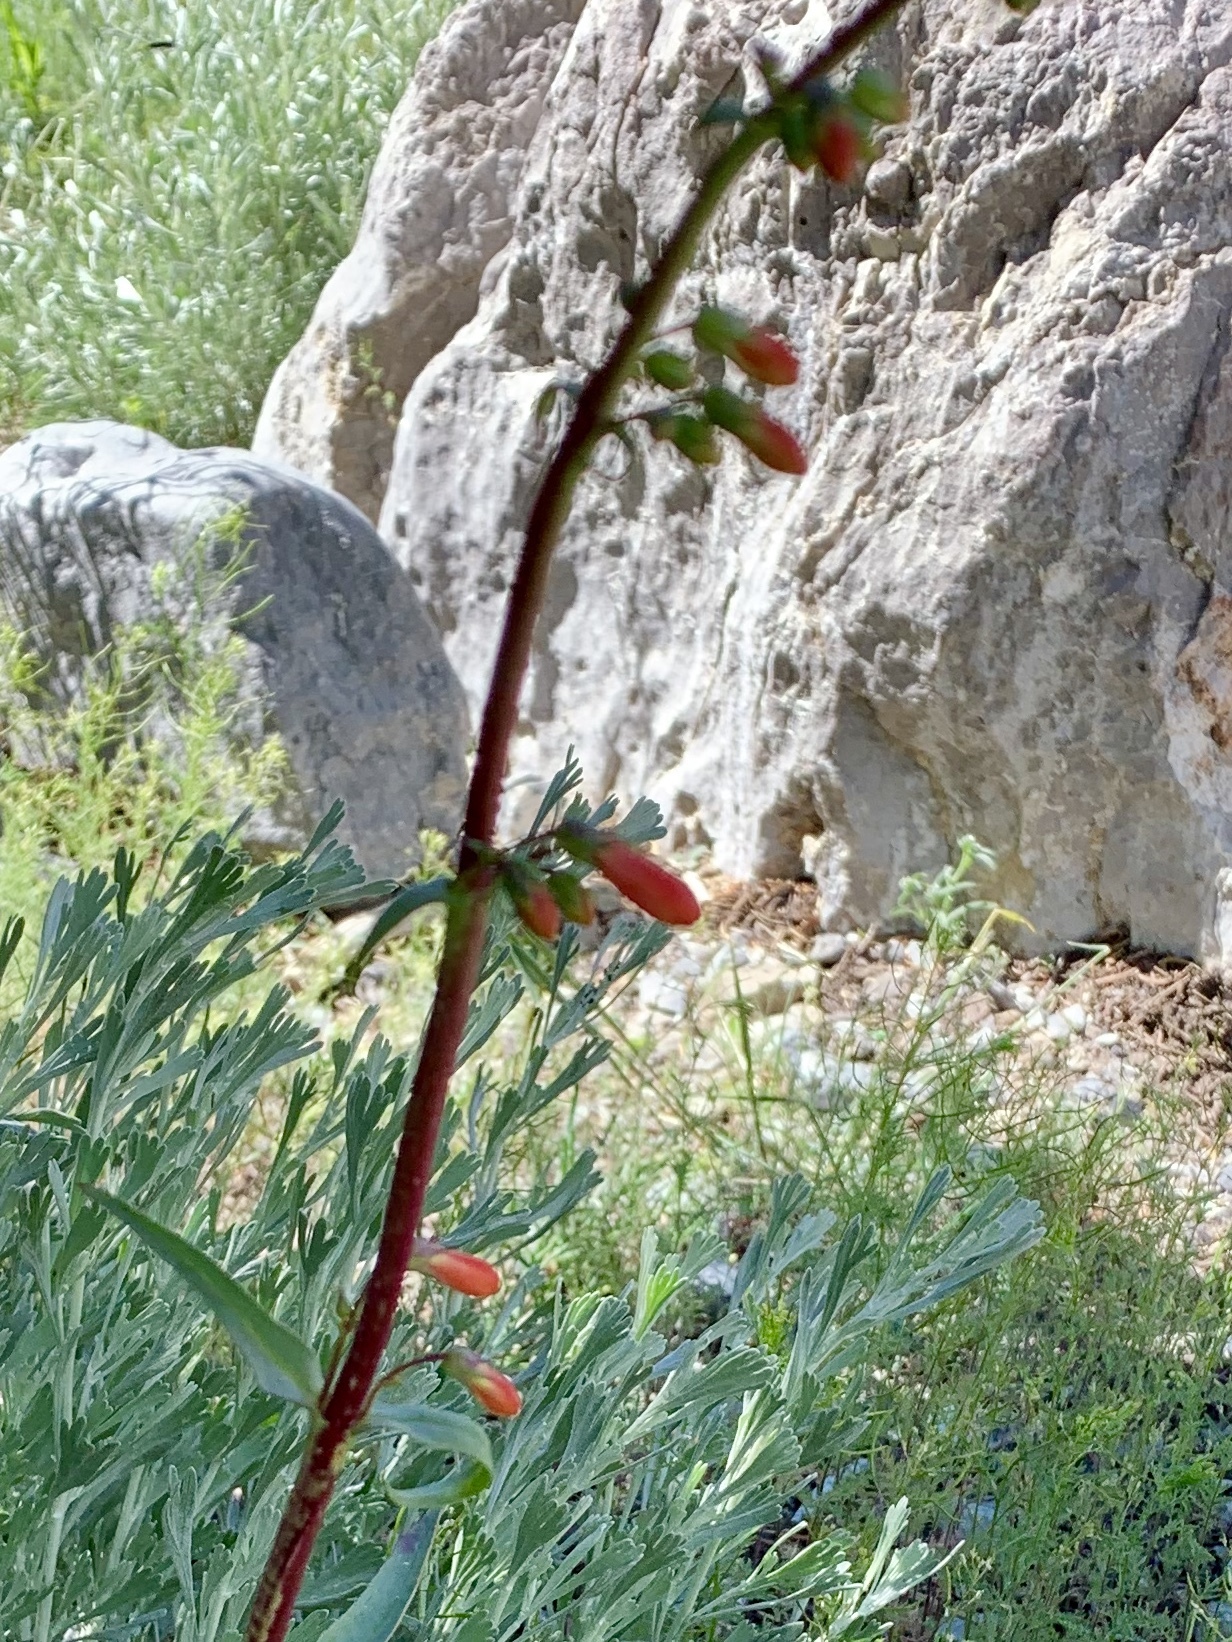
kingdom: Plantae
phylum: Tracheophyta
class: Magnoliopsida
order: Lamiales
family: Plantaginaceae
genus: Penstemon
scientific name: Penstemon eatonii
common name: Eaton's penstemon
